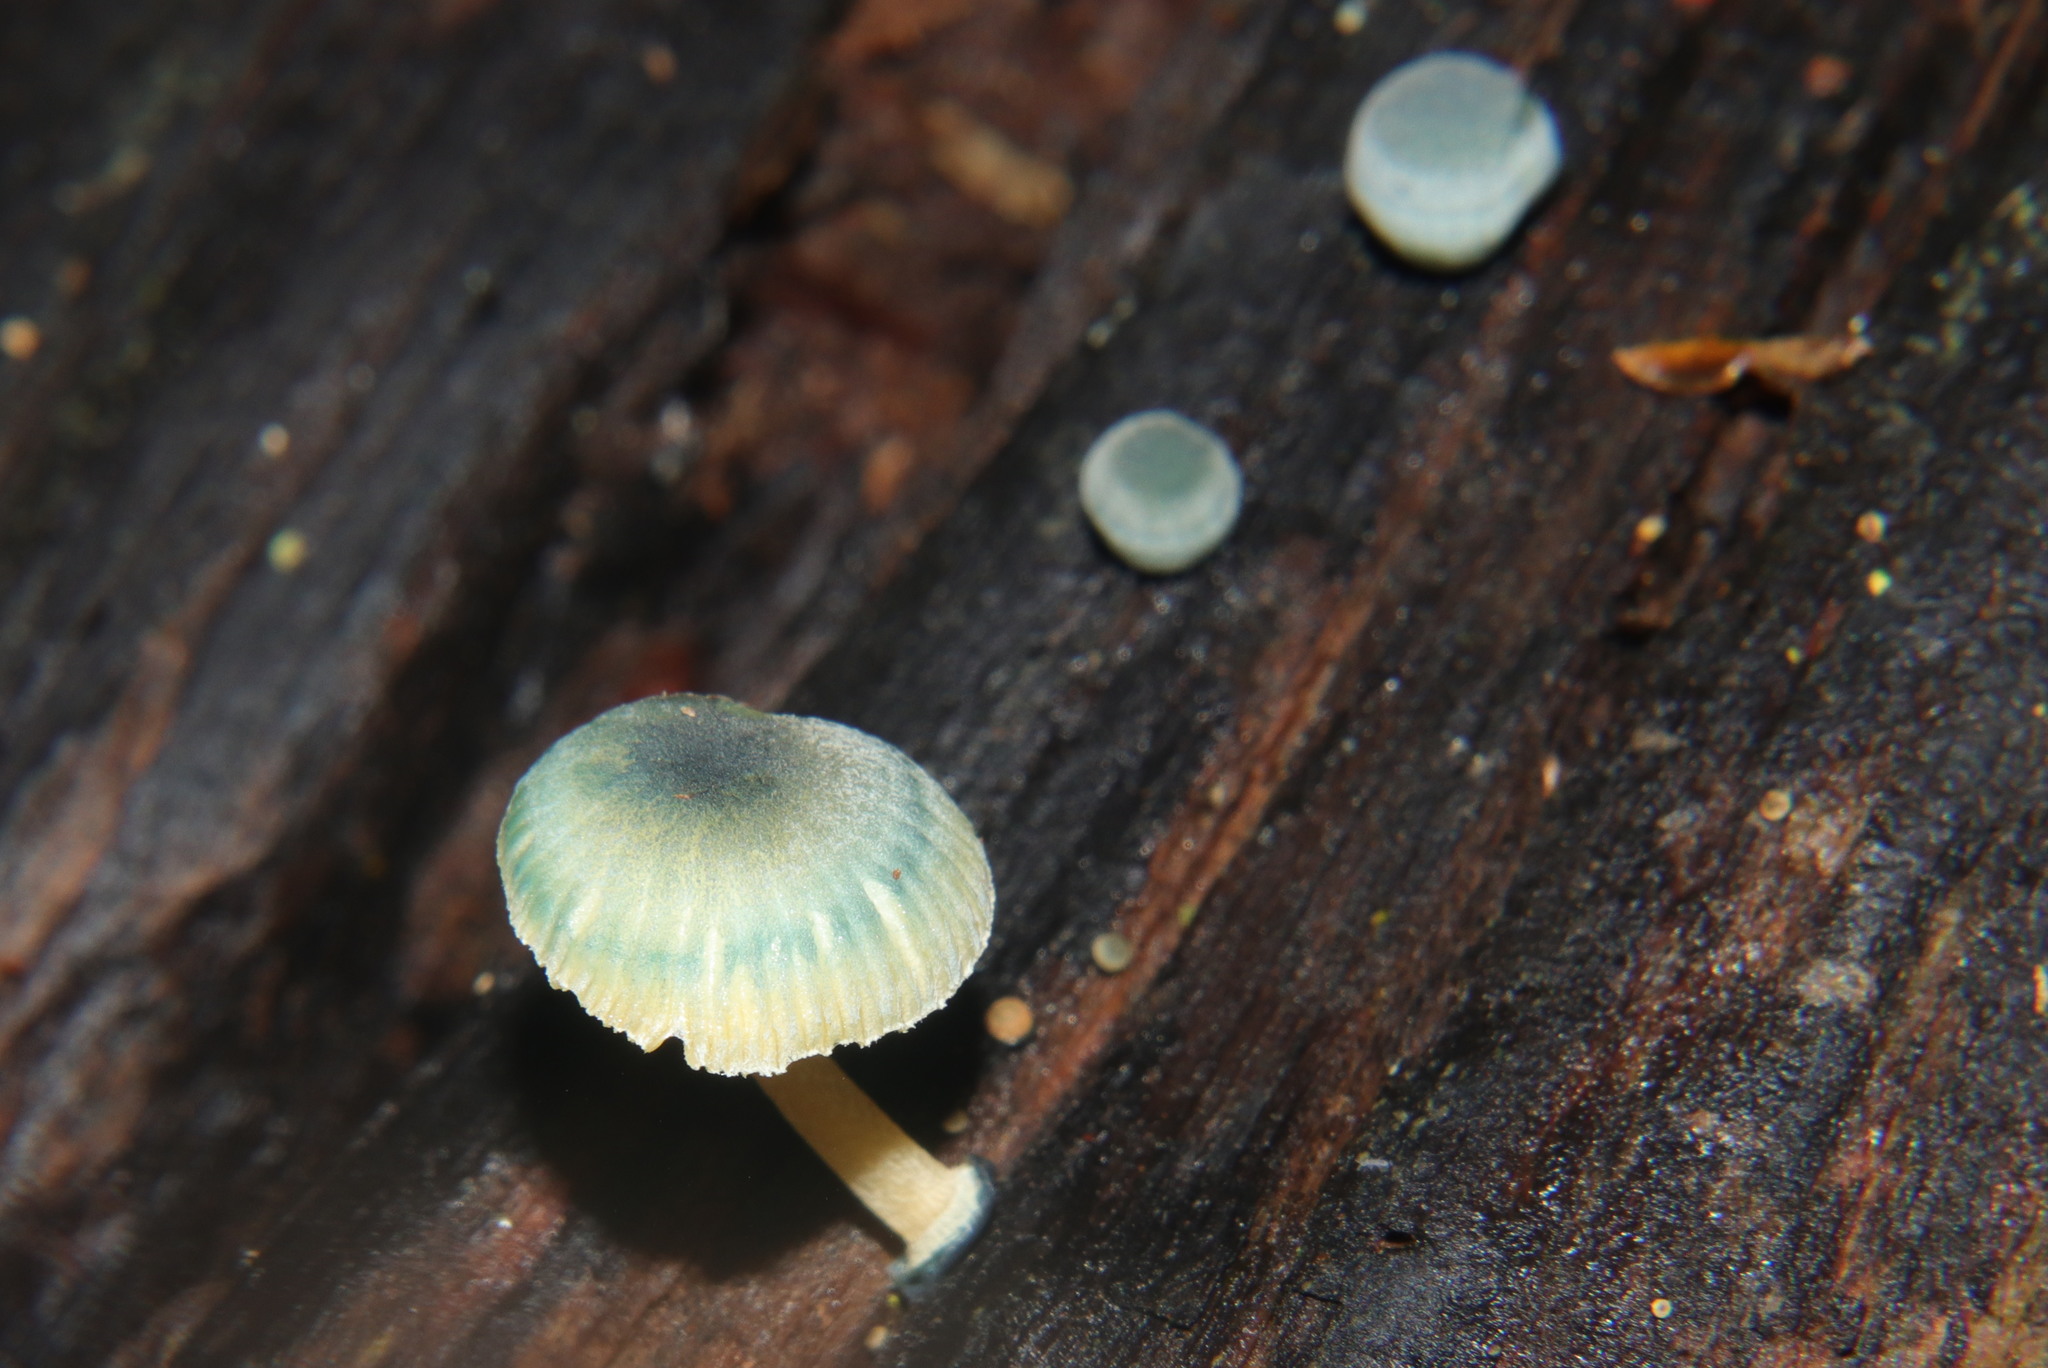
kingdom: Fungi
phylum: Basidiomycota
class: Agaricomycetes
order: Agaricales
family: Mycenaceae
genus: Mycena
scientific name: Mycena interrupta
